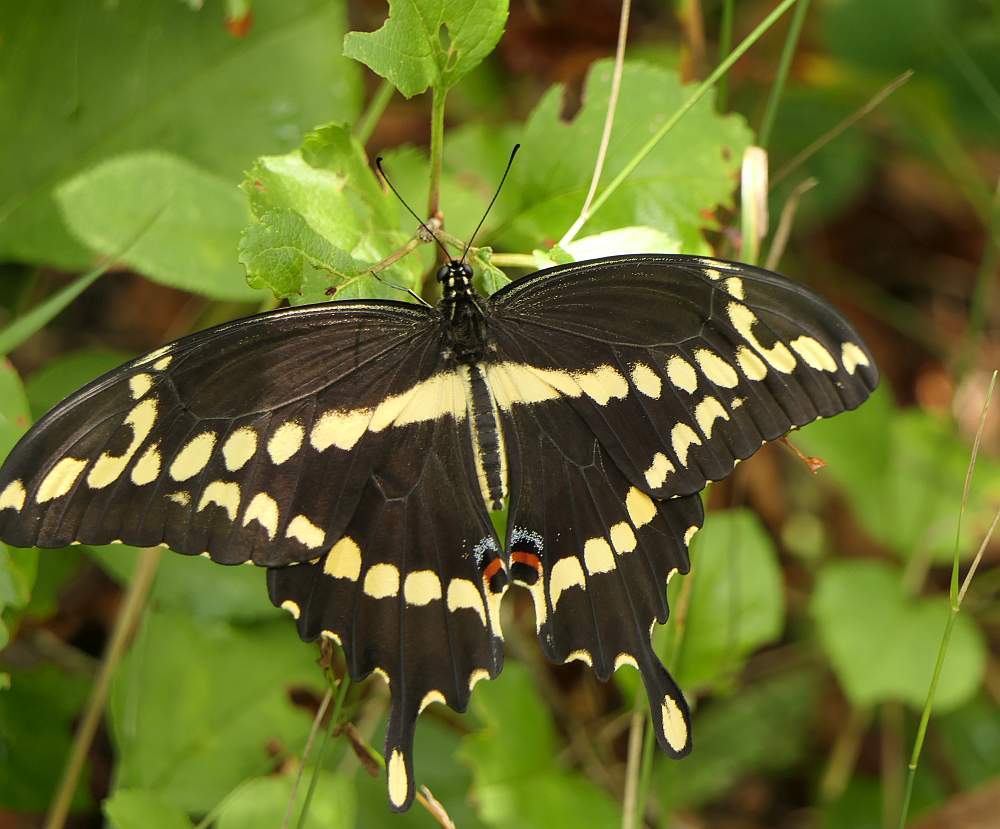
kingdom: Animalia
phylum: Arthropoda
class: Insecta
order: Lepidoptera
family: Papilionidae
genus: Papilio
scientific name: Papilio cresphontes
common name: Giant swallowtail
